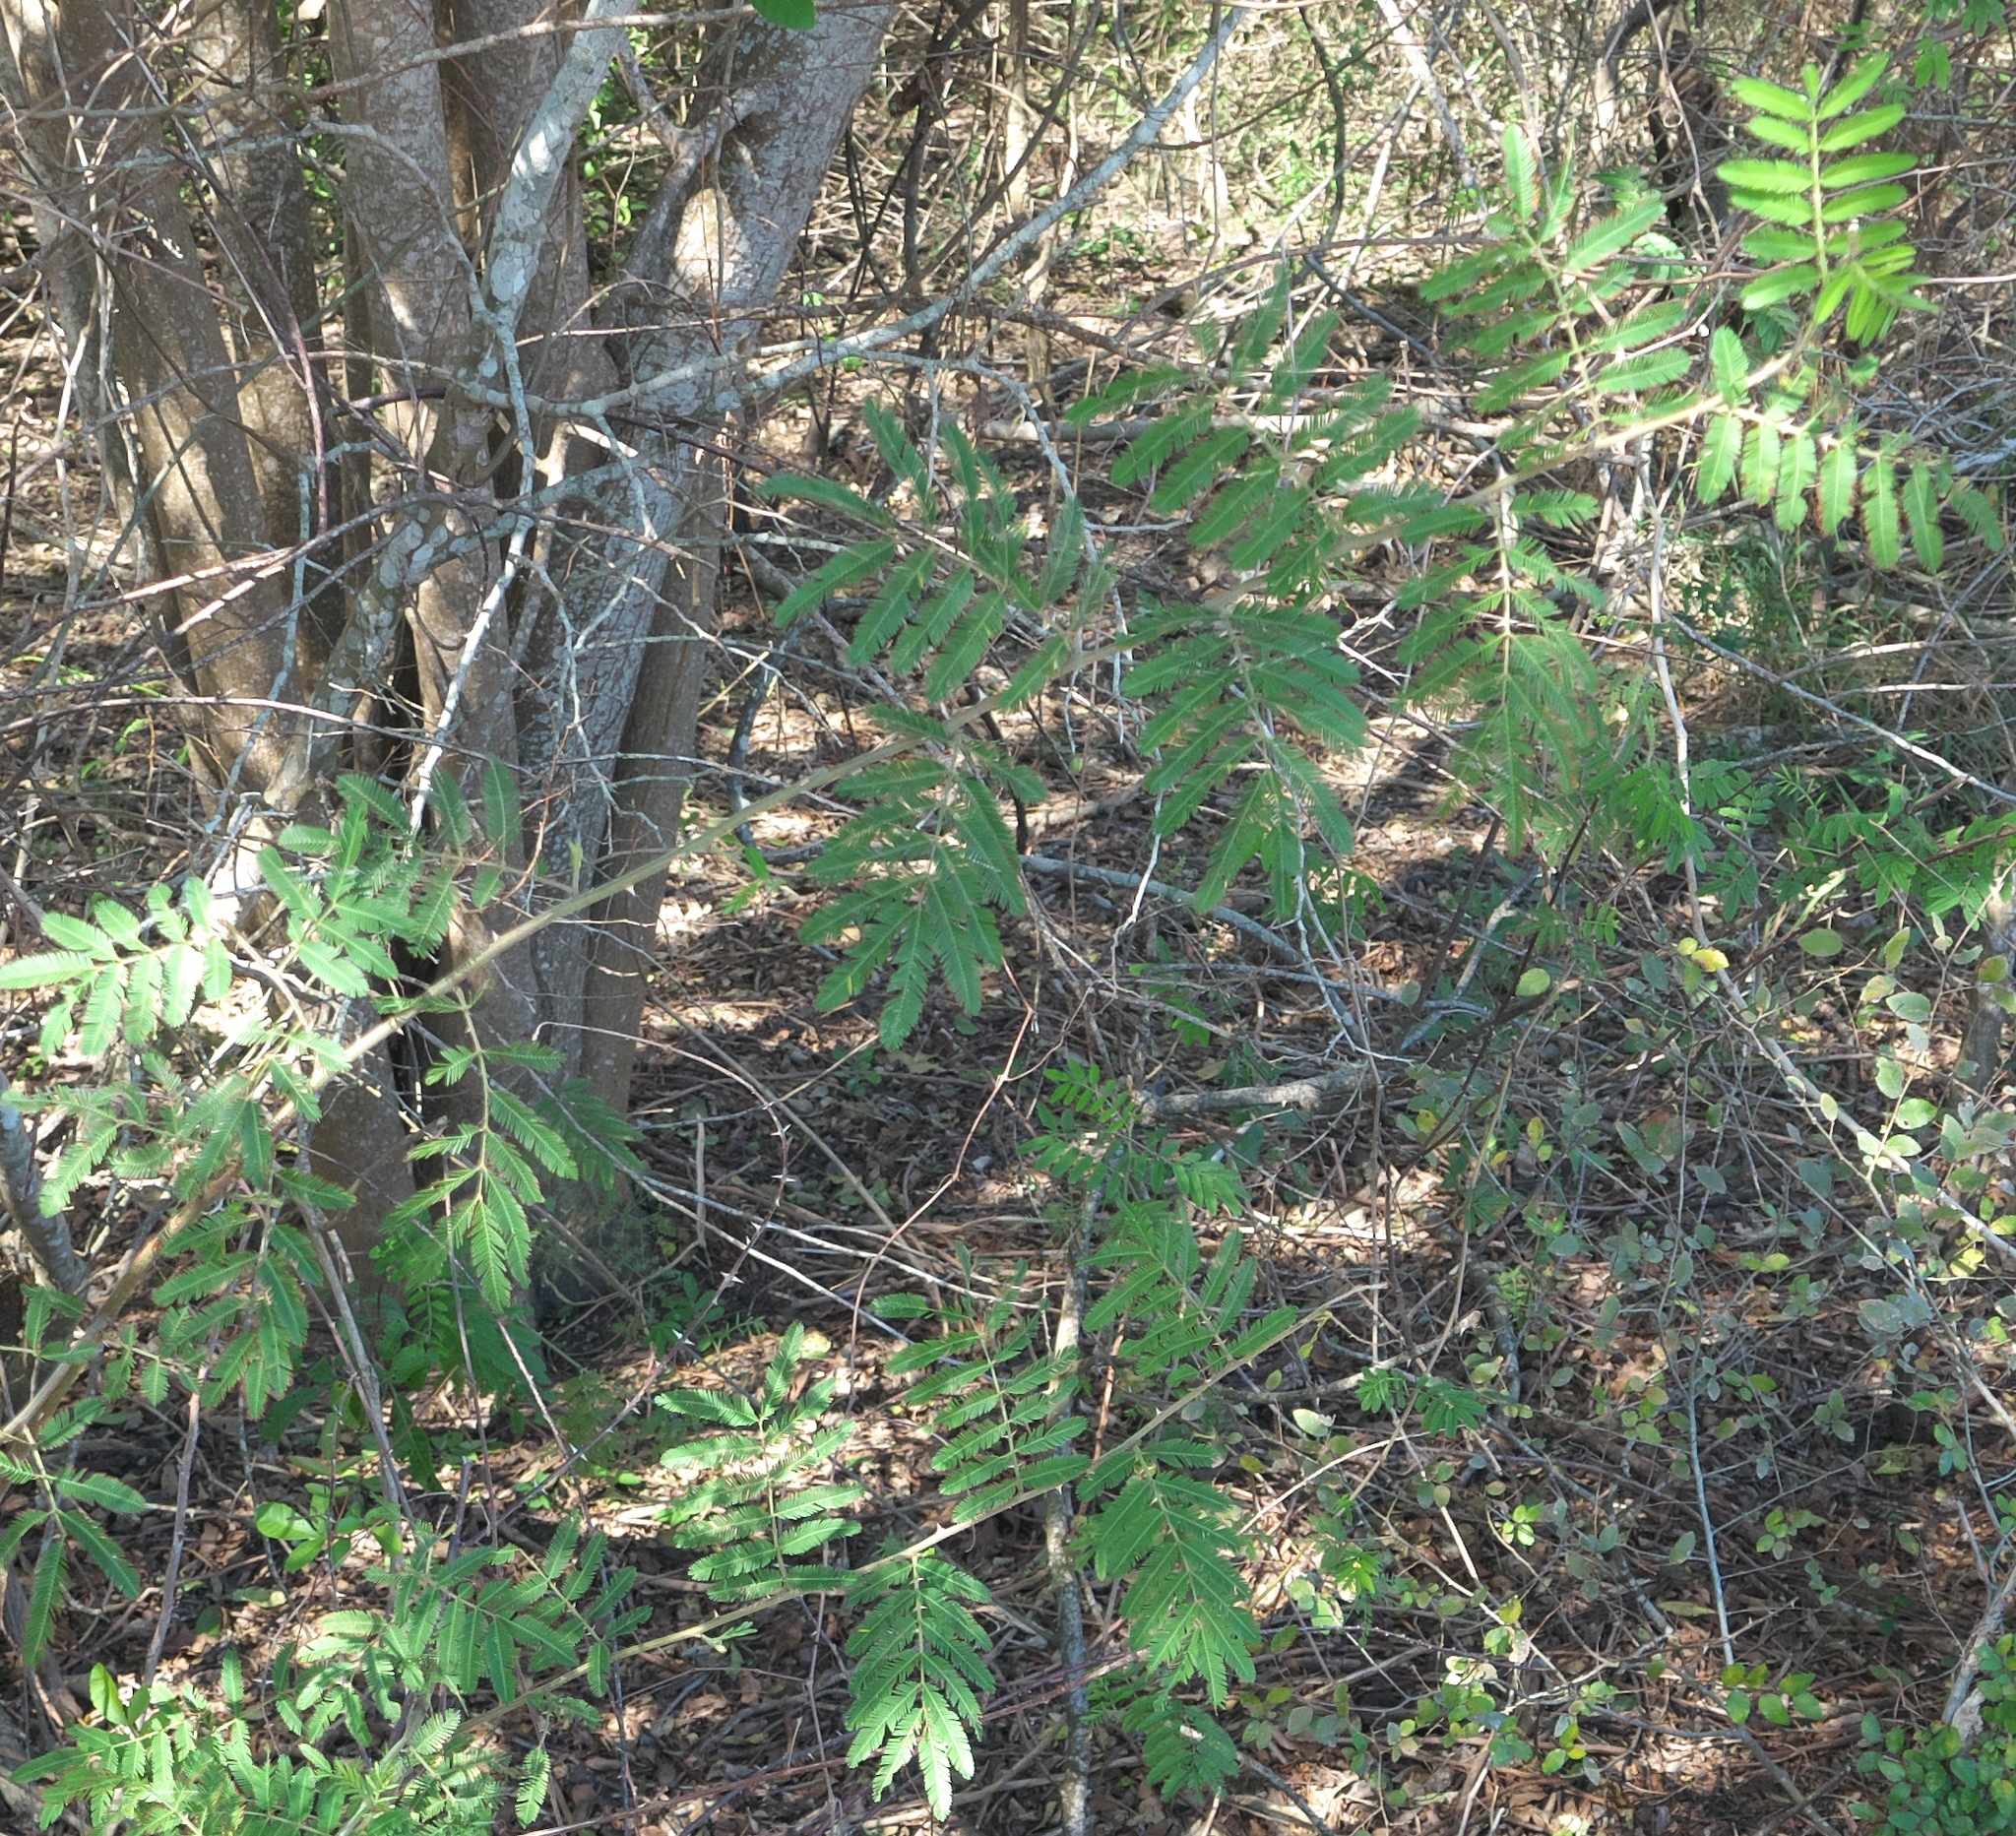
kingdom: Plantae
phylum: Tracheophyta
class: Magnoliopsida
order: Fabales
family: Fabaceae
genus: Mimosa
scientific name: Mimosa pigra
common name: Black mimosa
